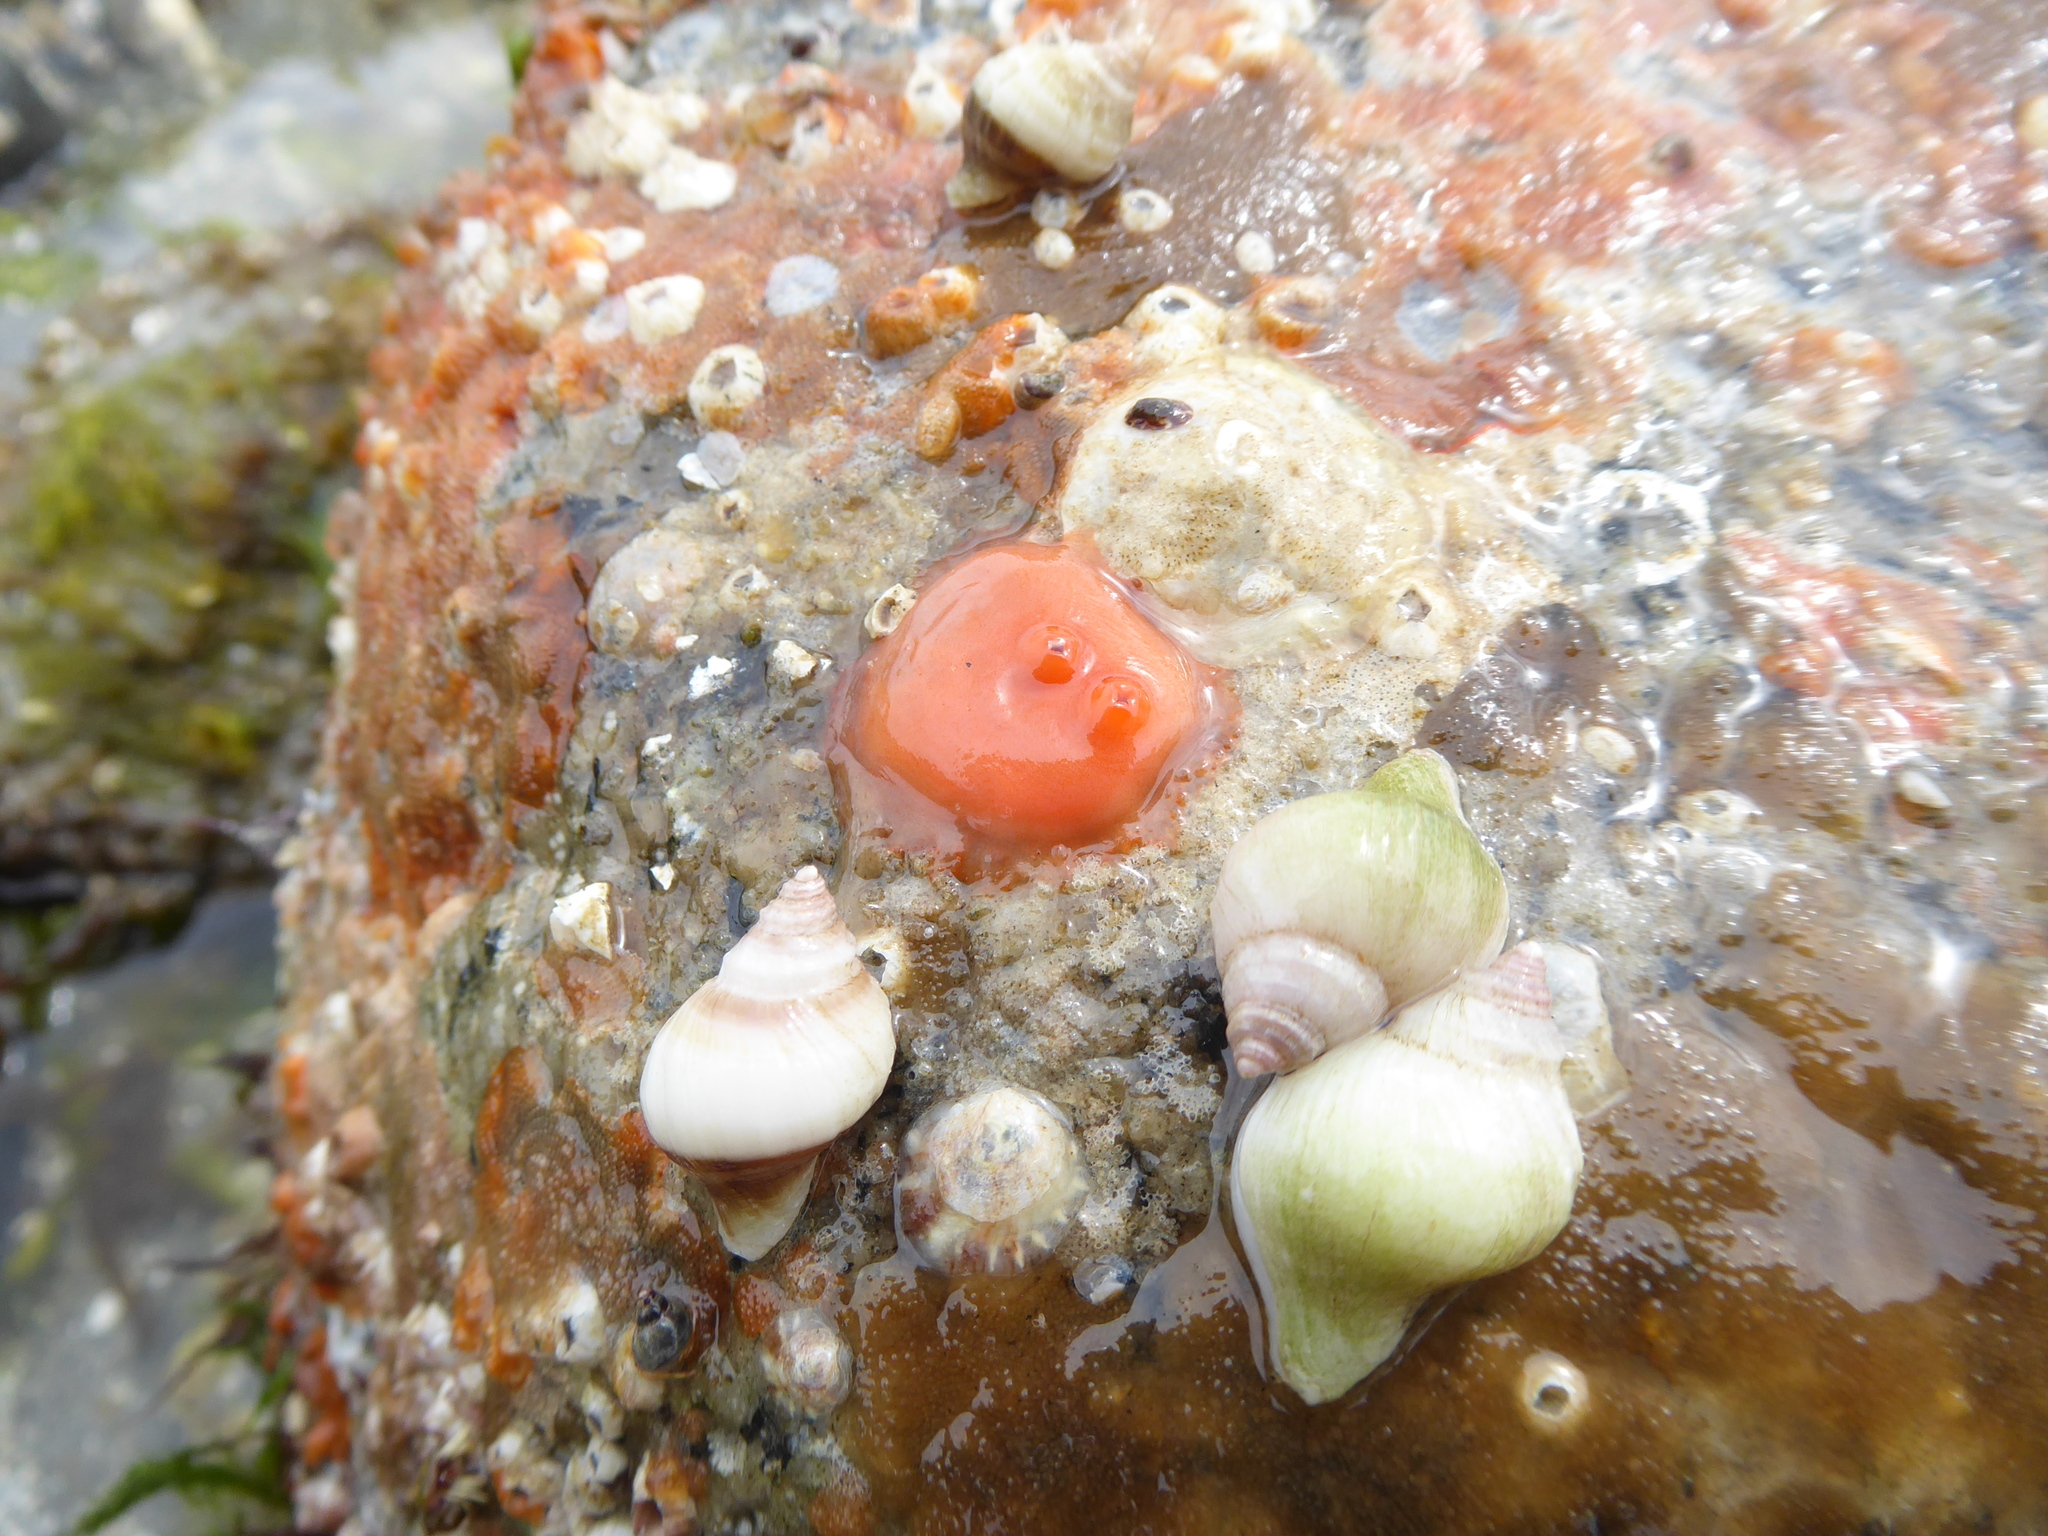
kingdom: Animalia
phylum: Chordata
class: Ascidiacea
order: Stolidobranchia
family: Styelidae
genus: Cnemidocarpa
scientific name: Cnemidocarpa finmarkiensis
